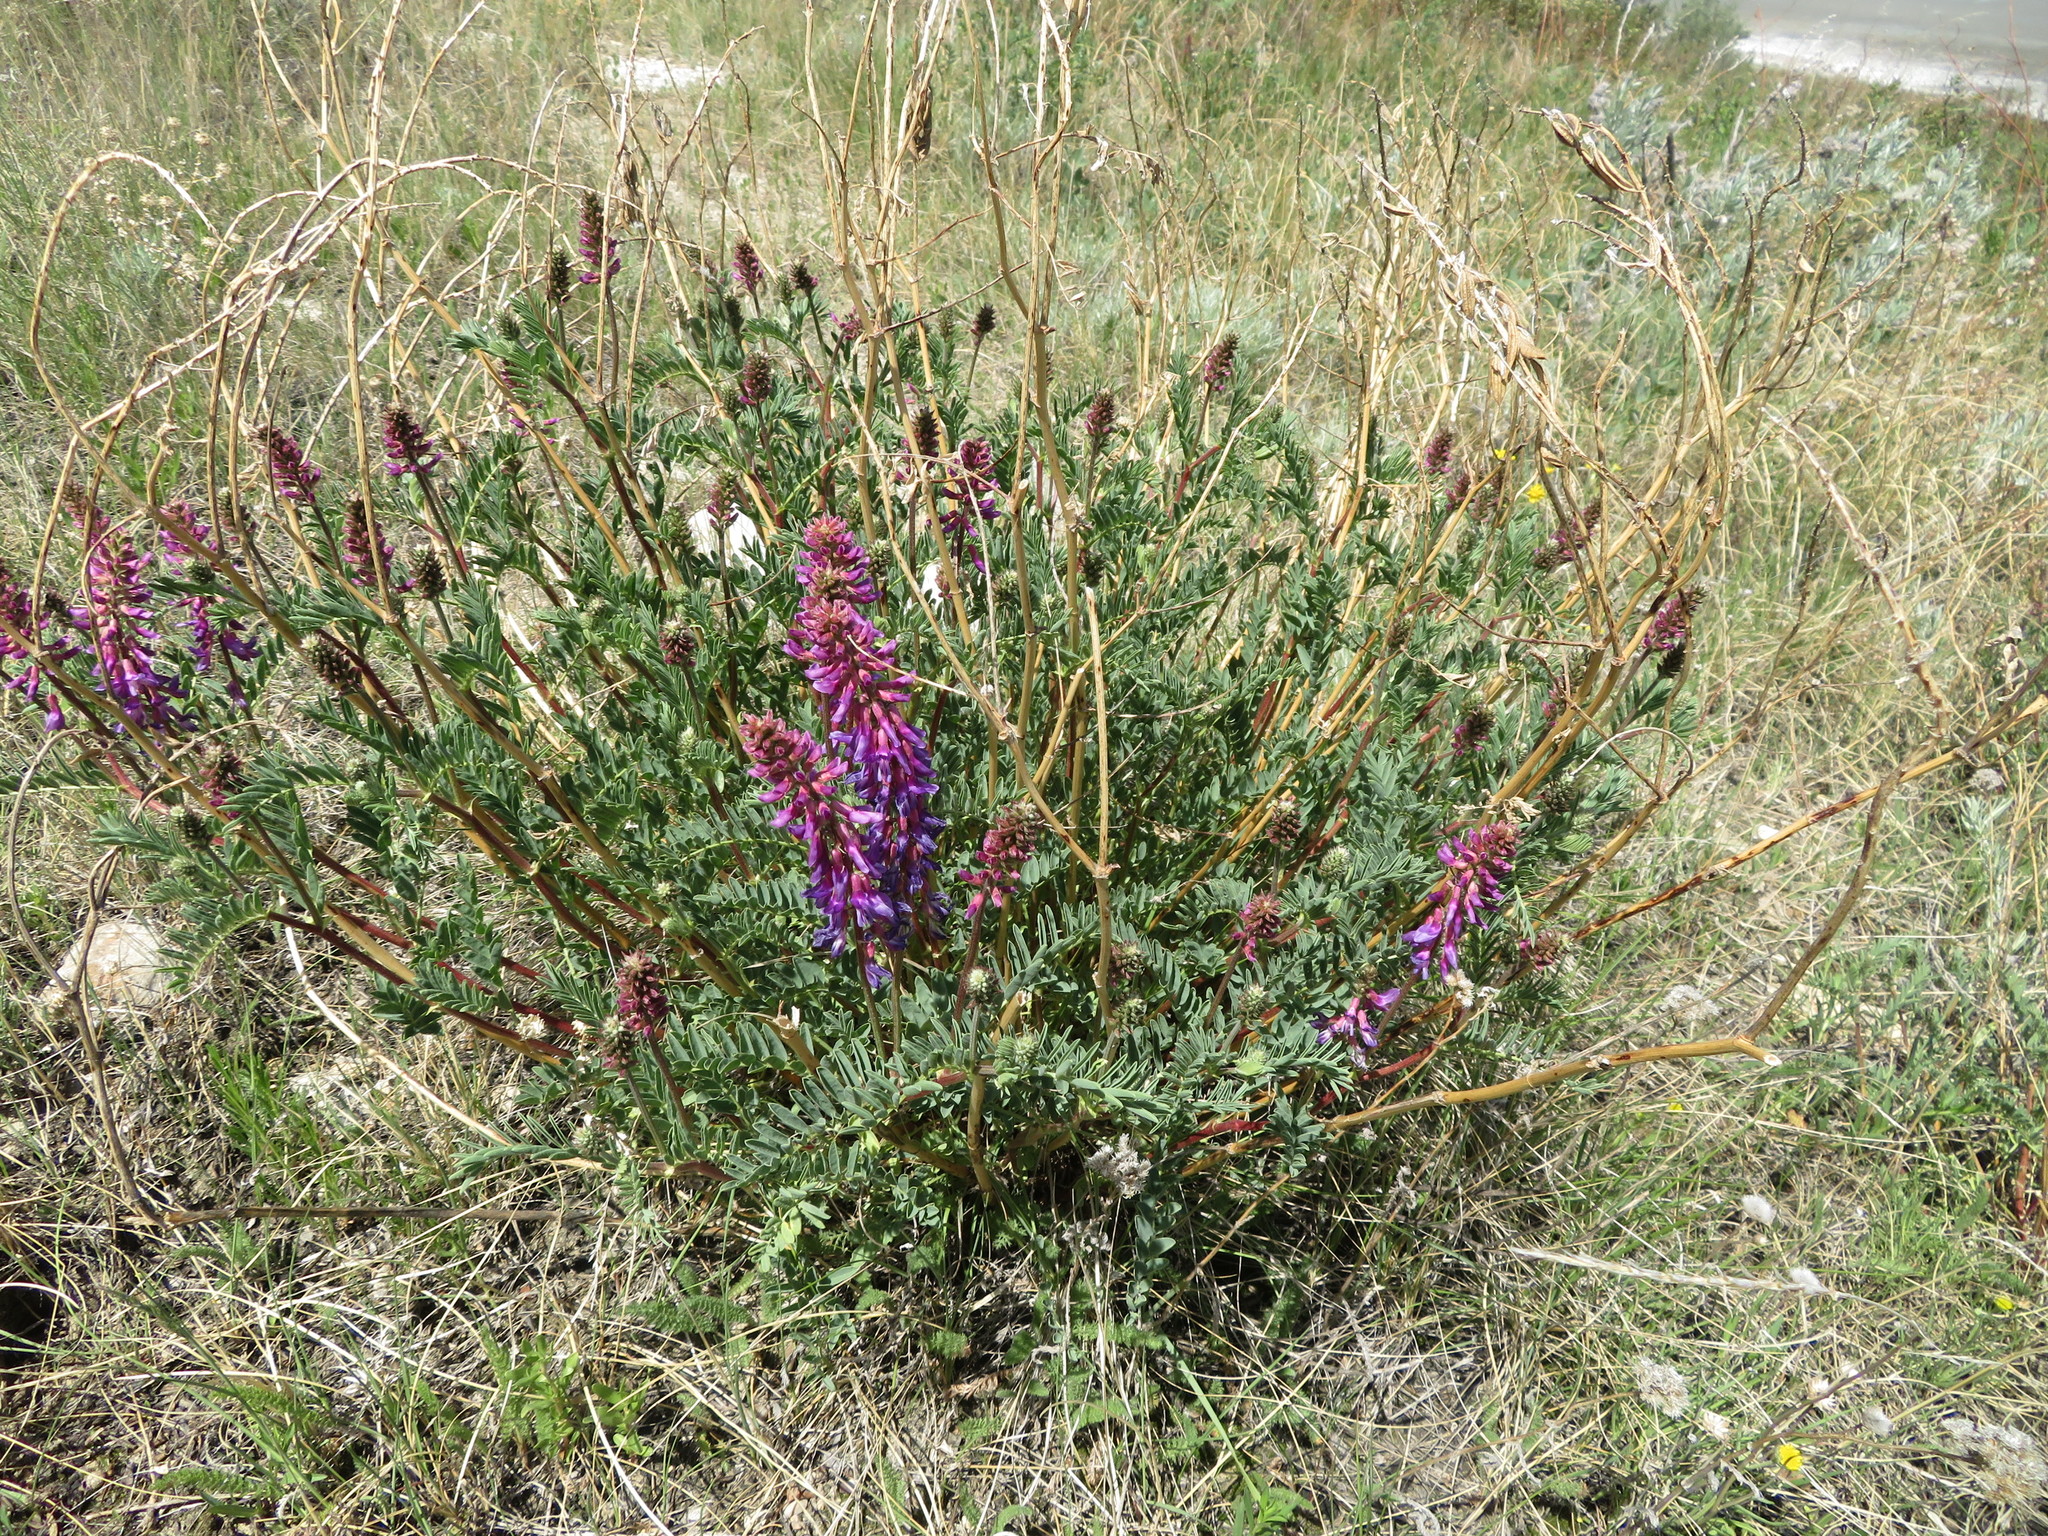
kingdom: Plantae
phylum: Tracheophyta
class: Magnoliopsida
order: Fabales
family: Fabaceae
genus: Astragalus
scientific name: Astragalus bisulcatus
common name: Two-groove milk-vetch
